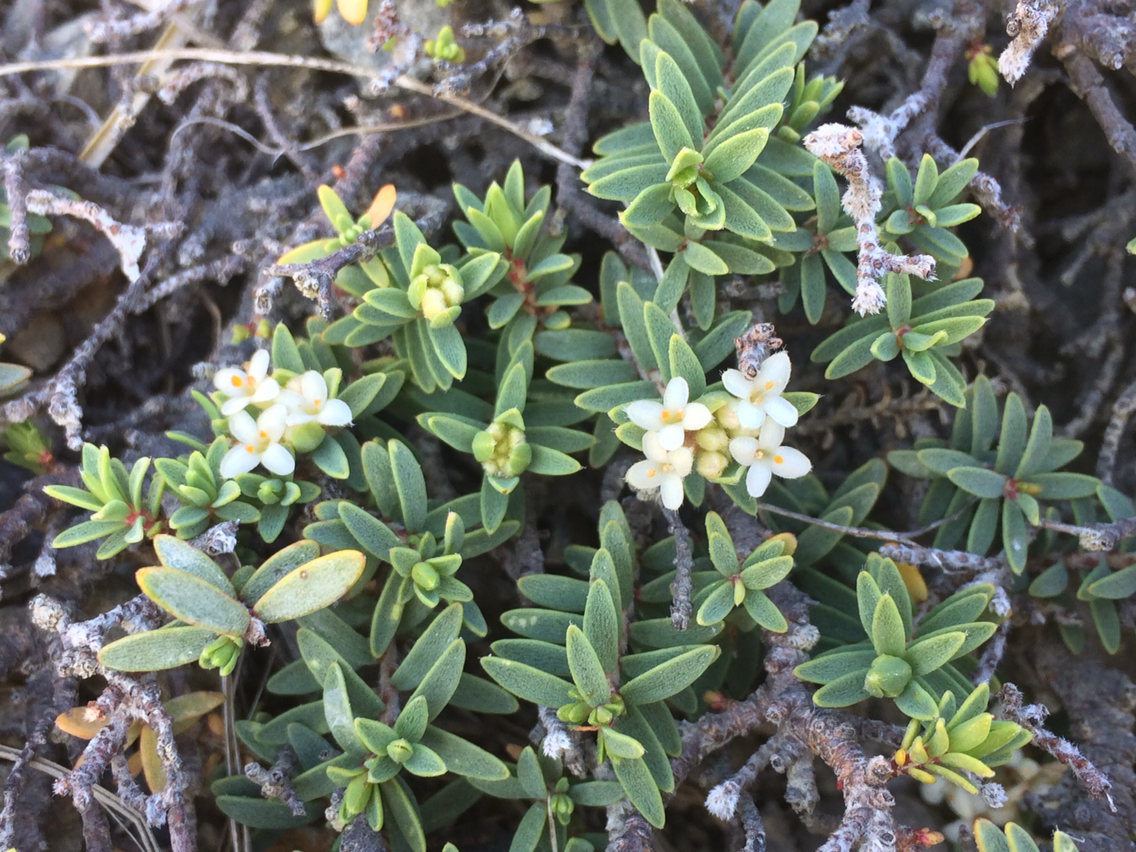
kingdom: Plantae
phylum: Tracheophyta
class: Magnoliopsida
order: Malvales
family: Thymelaeaceae
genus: Pimelea
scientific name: Pimelea prostrata
